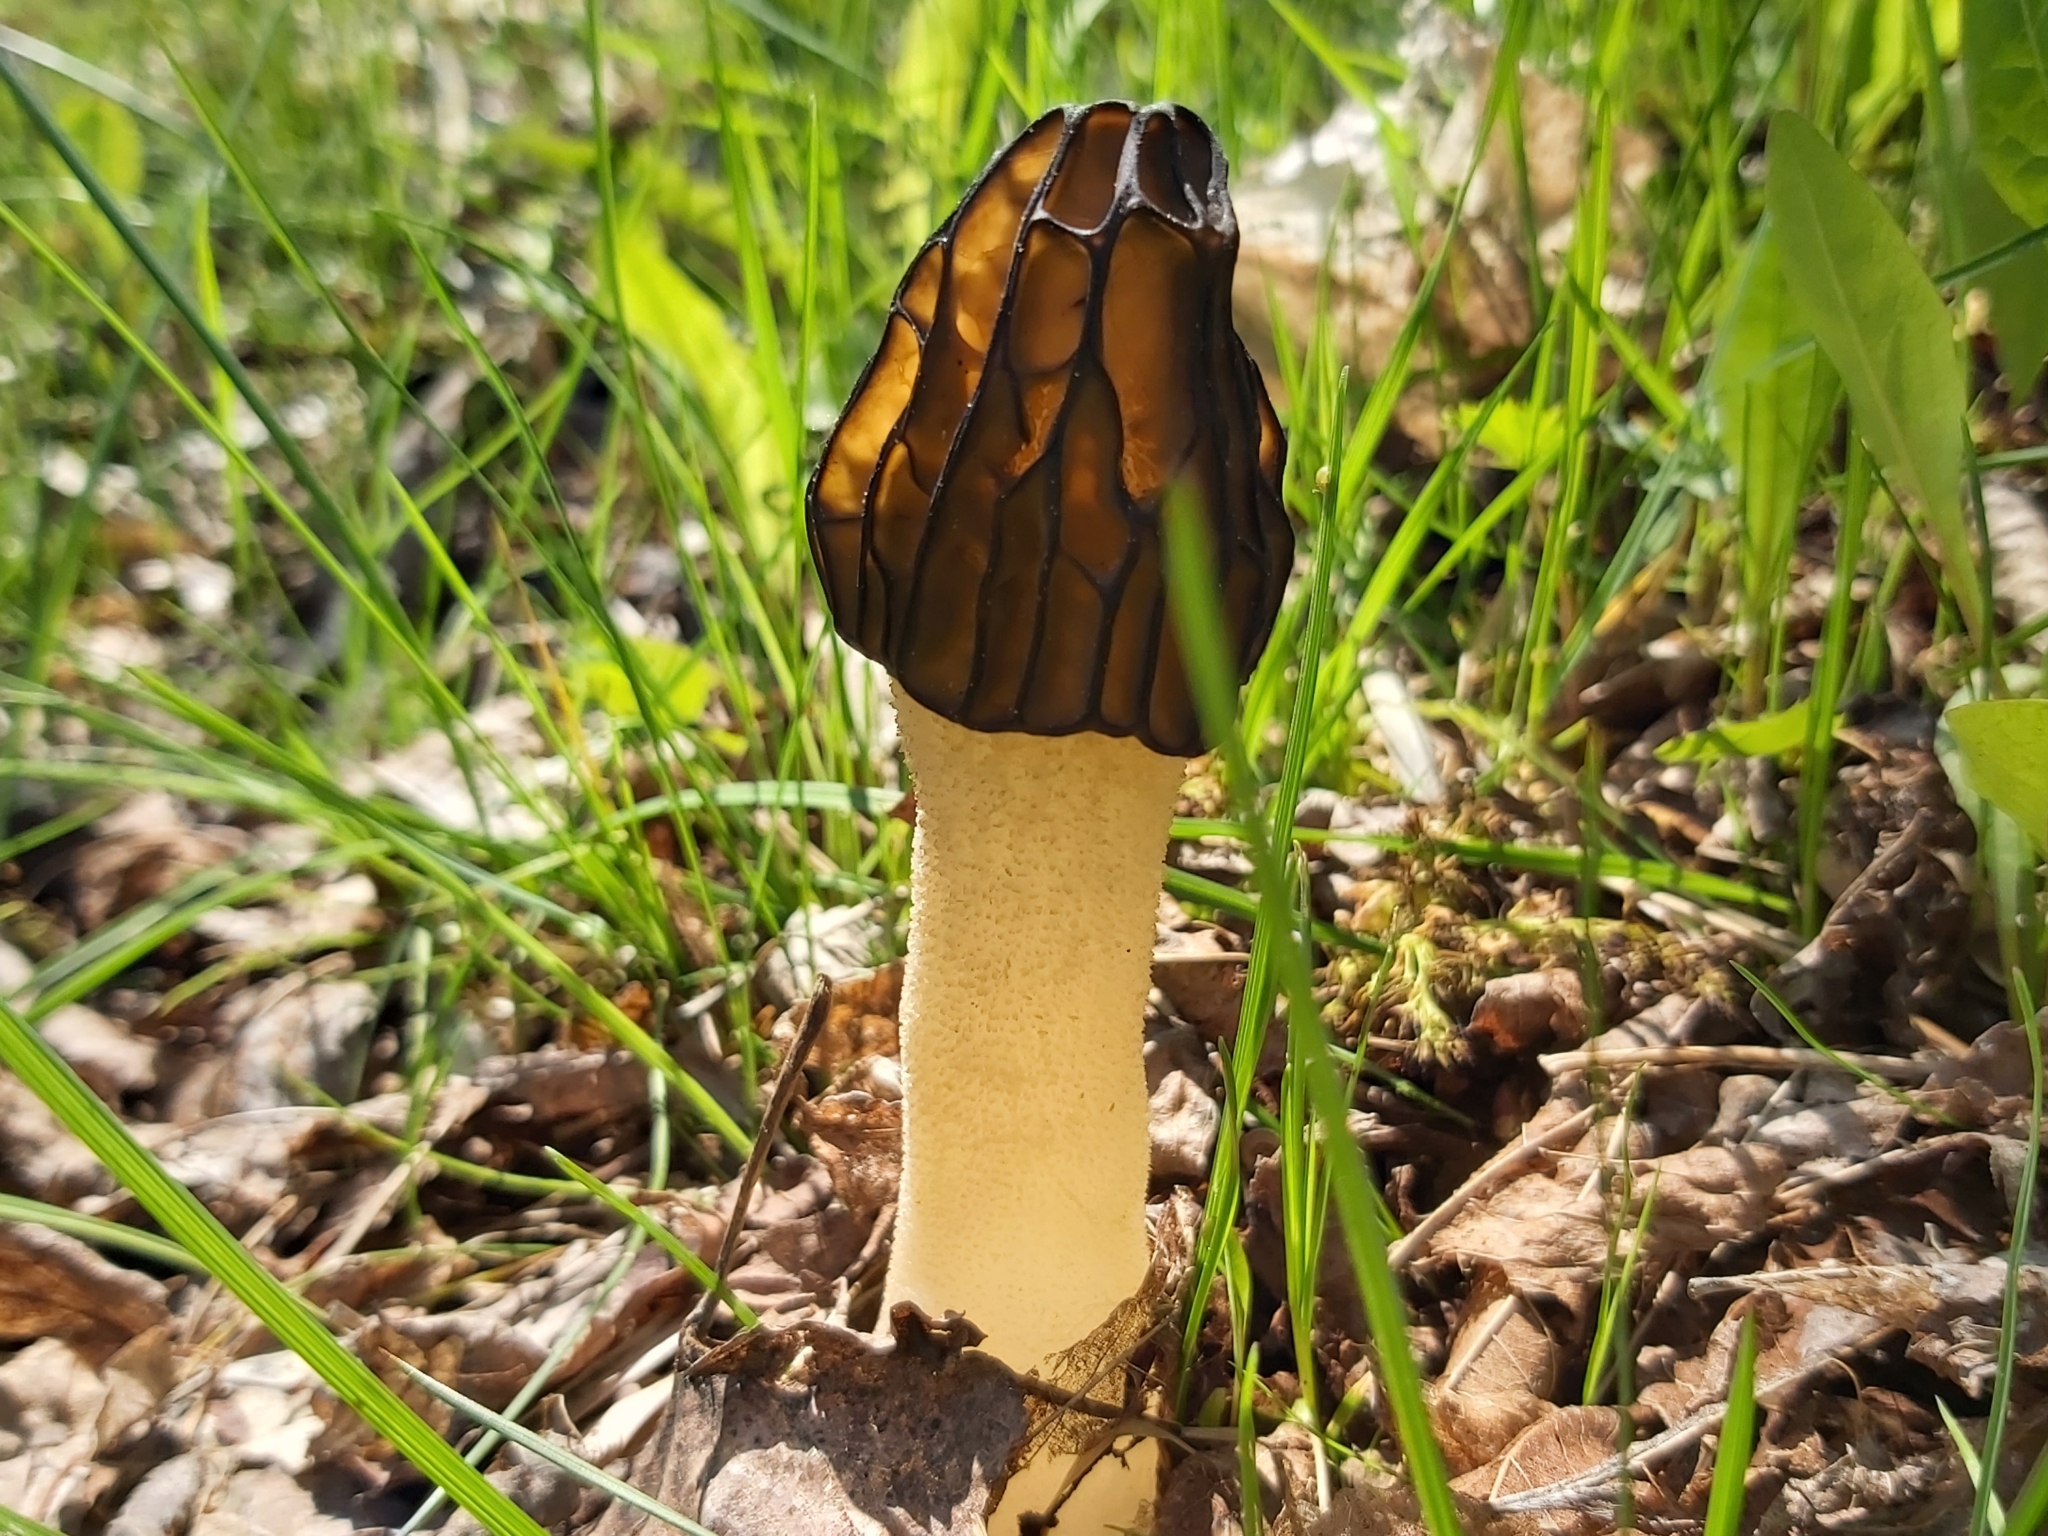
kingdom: Fungi
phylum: Ascomycota
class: Pezizomycetes
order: Pezizales
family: Morchellaceae
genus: Morchella
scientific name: Morchella semilibera
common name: Semifree morel
